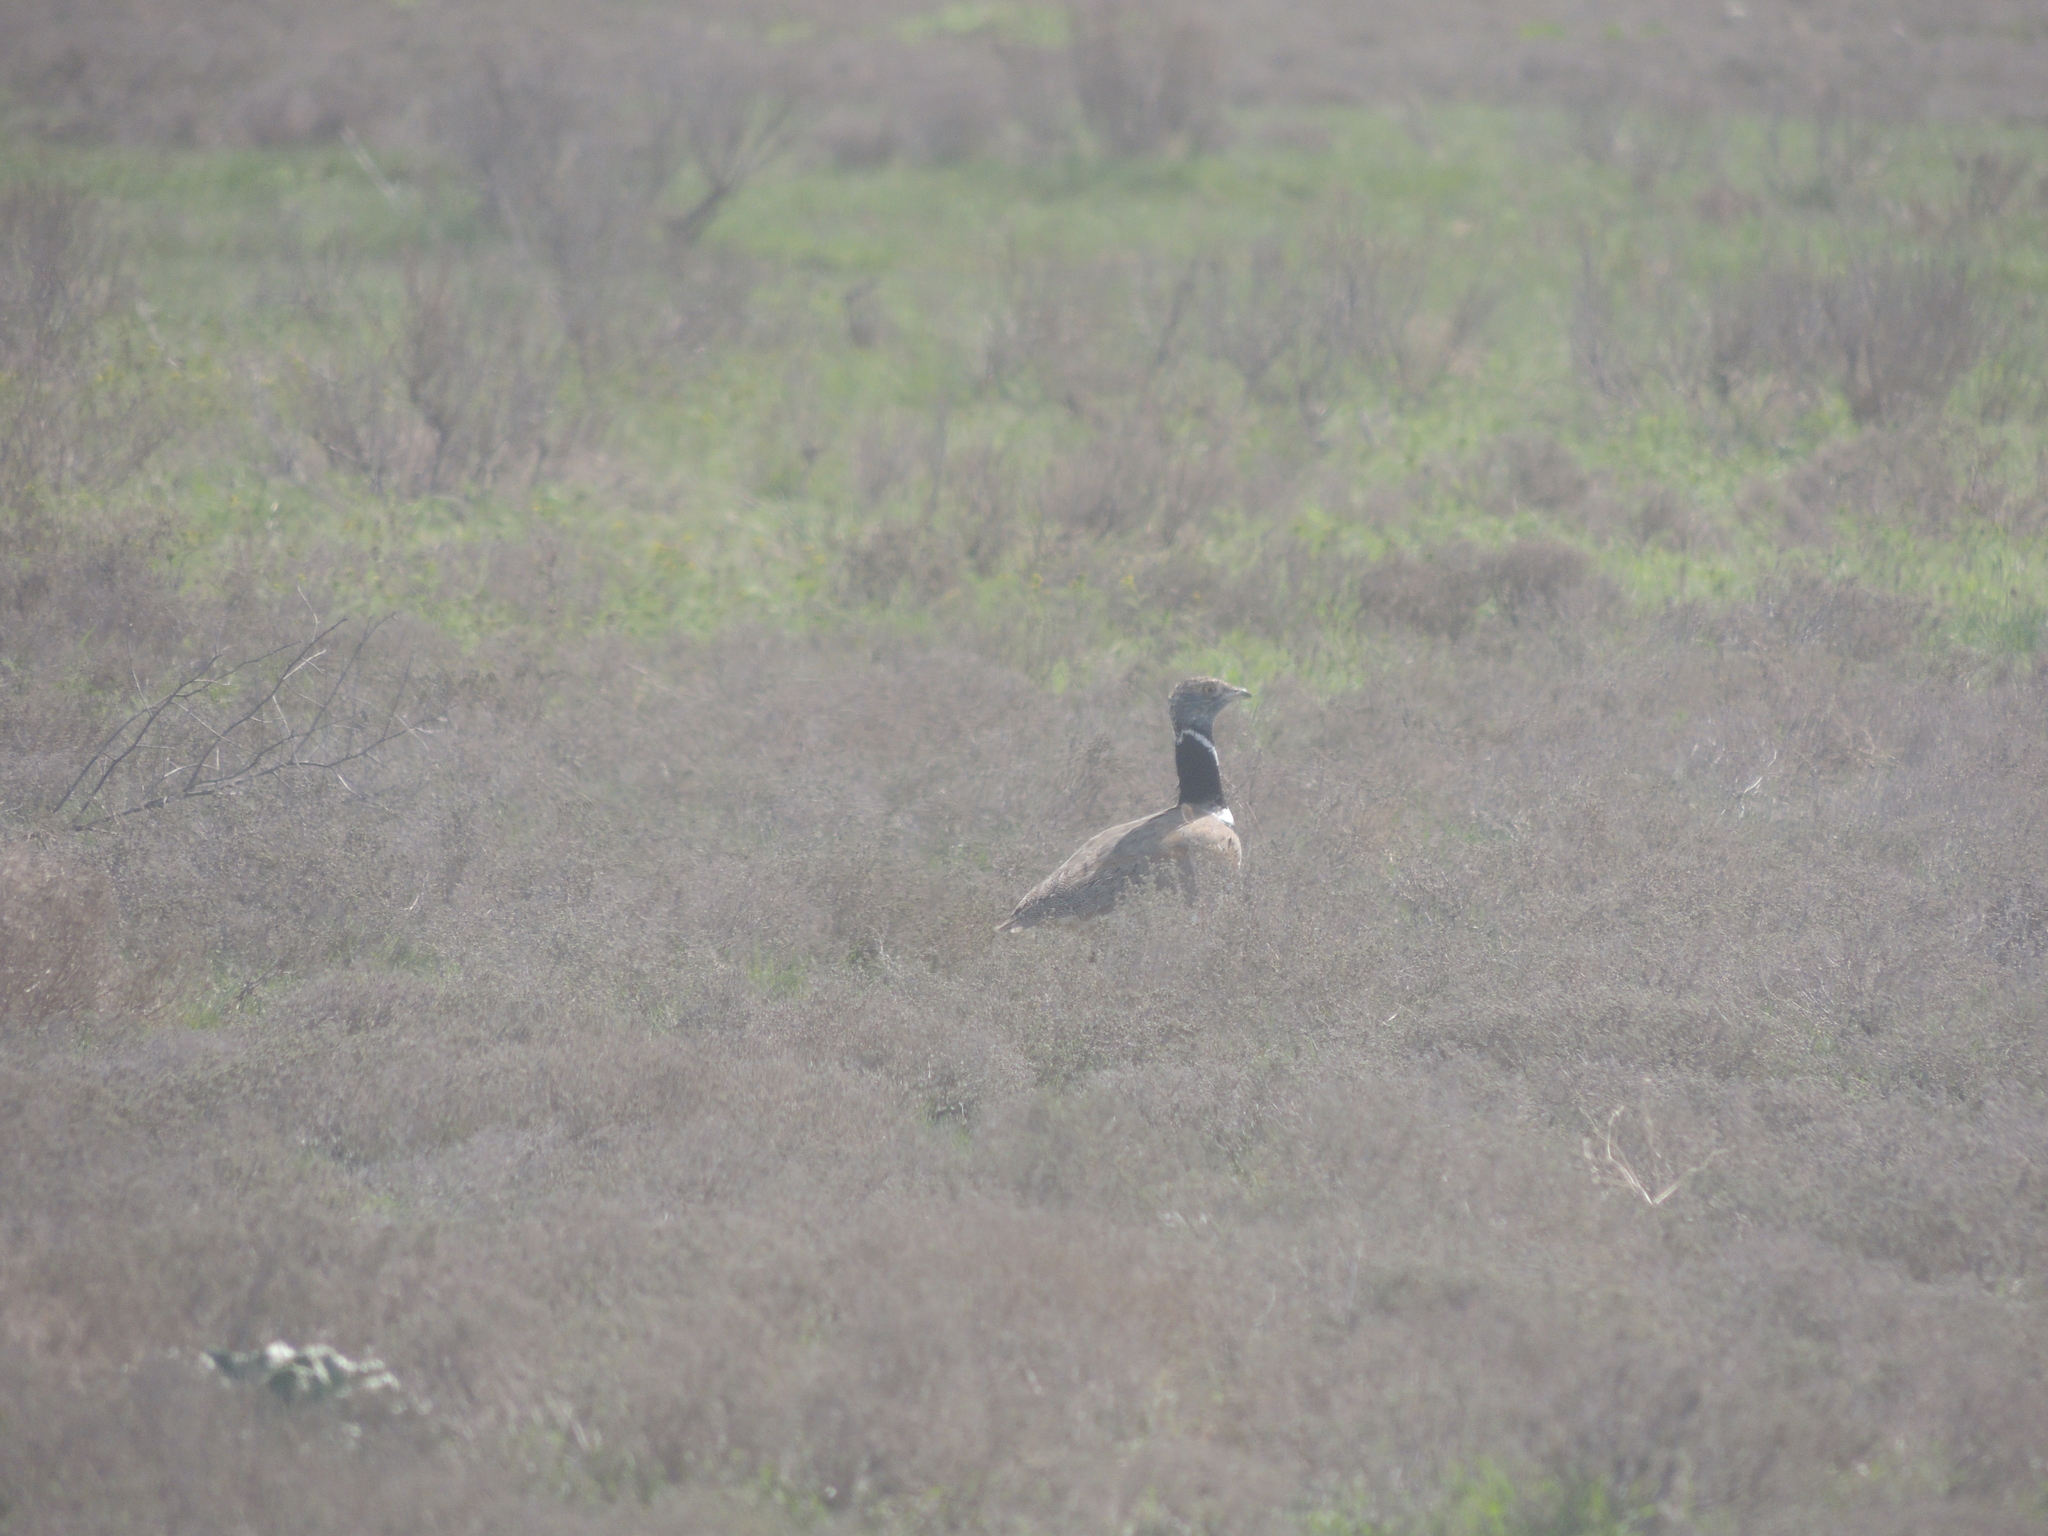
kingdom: Animalia
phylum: Chordata
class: Aves
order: Otidiformes
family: Otididae
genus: Tetrax
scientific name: Tetrax tetrax
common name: Little bustard
